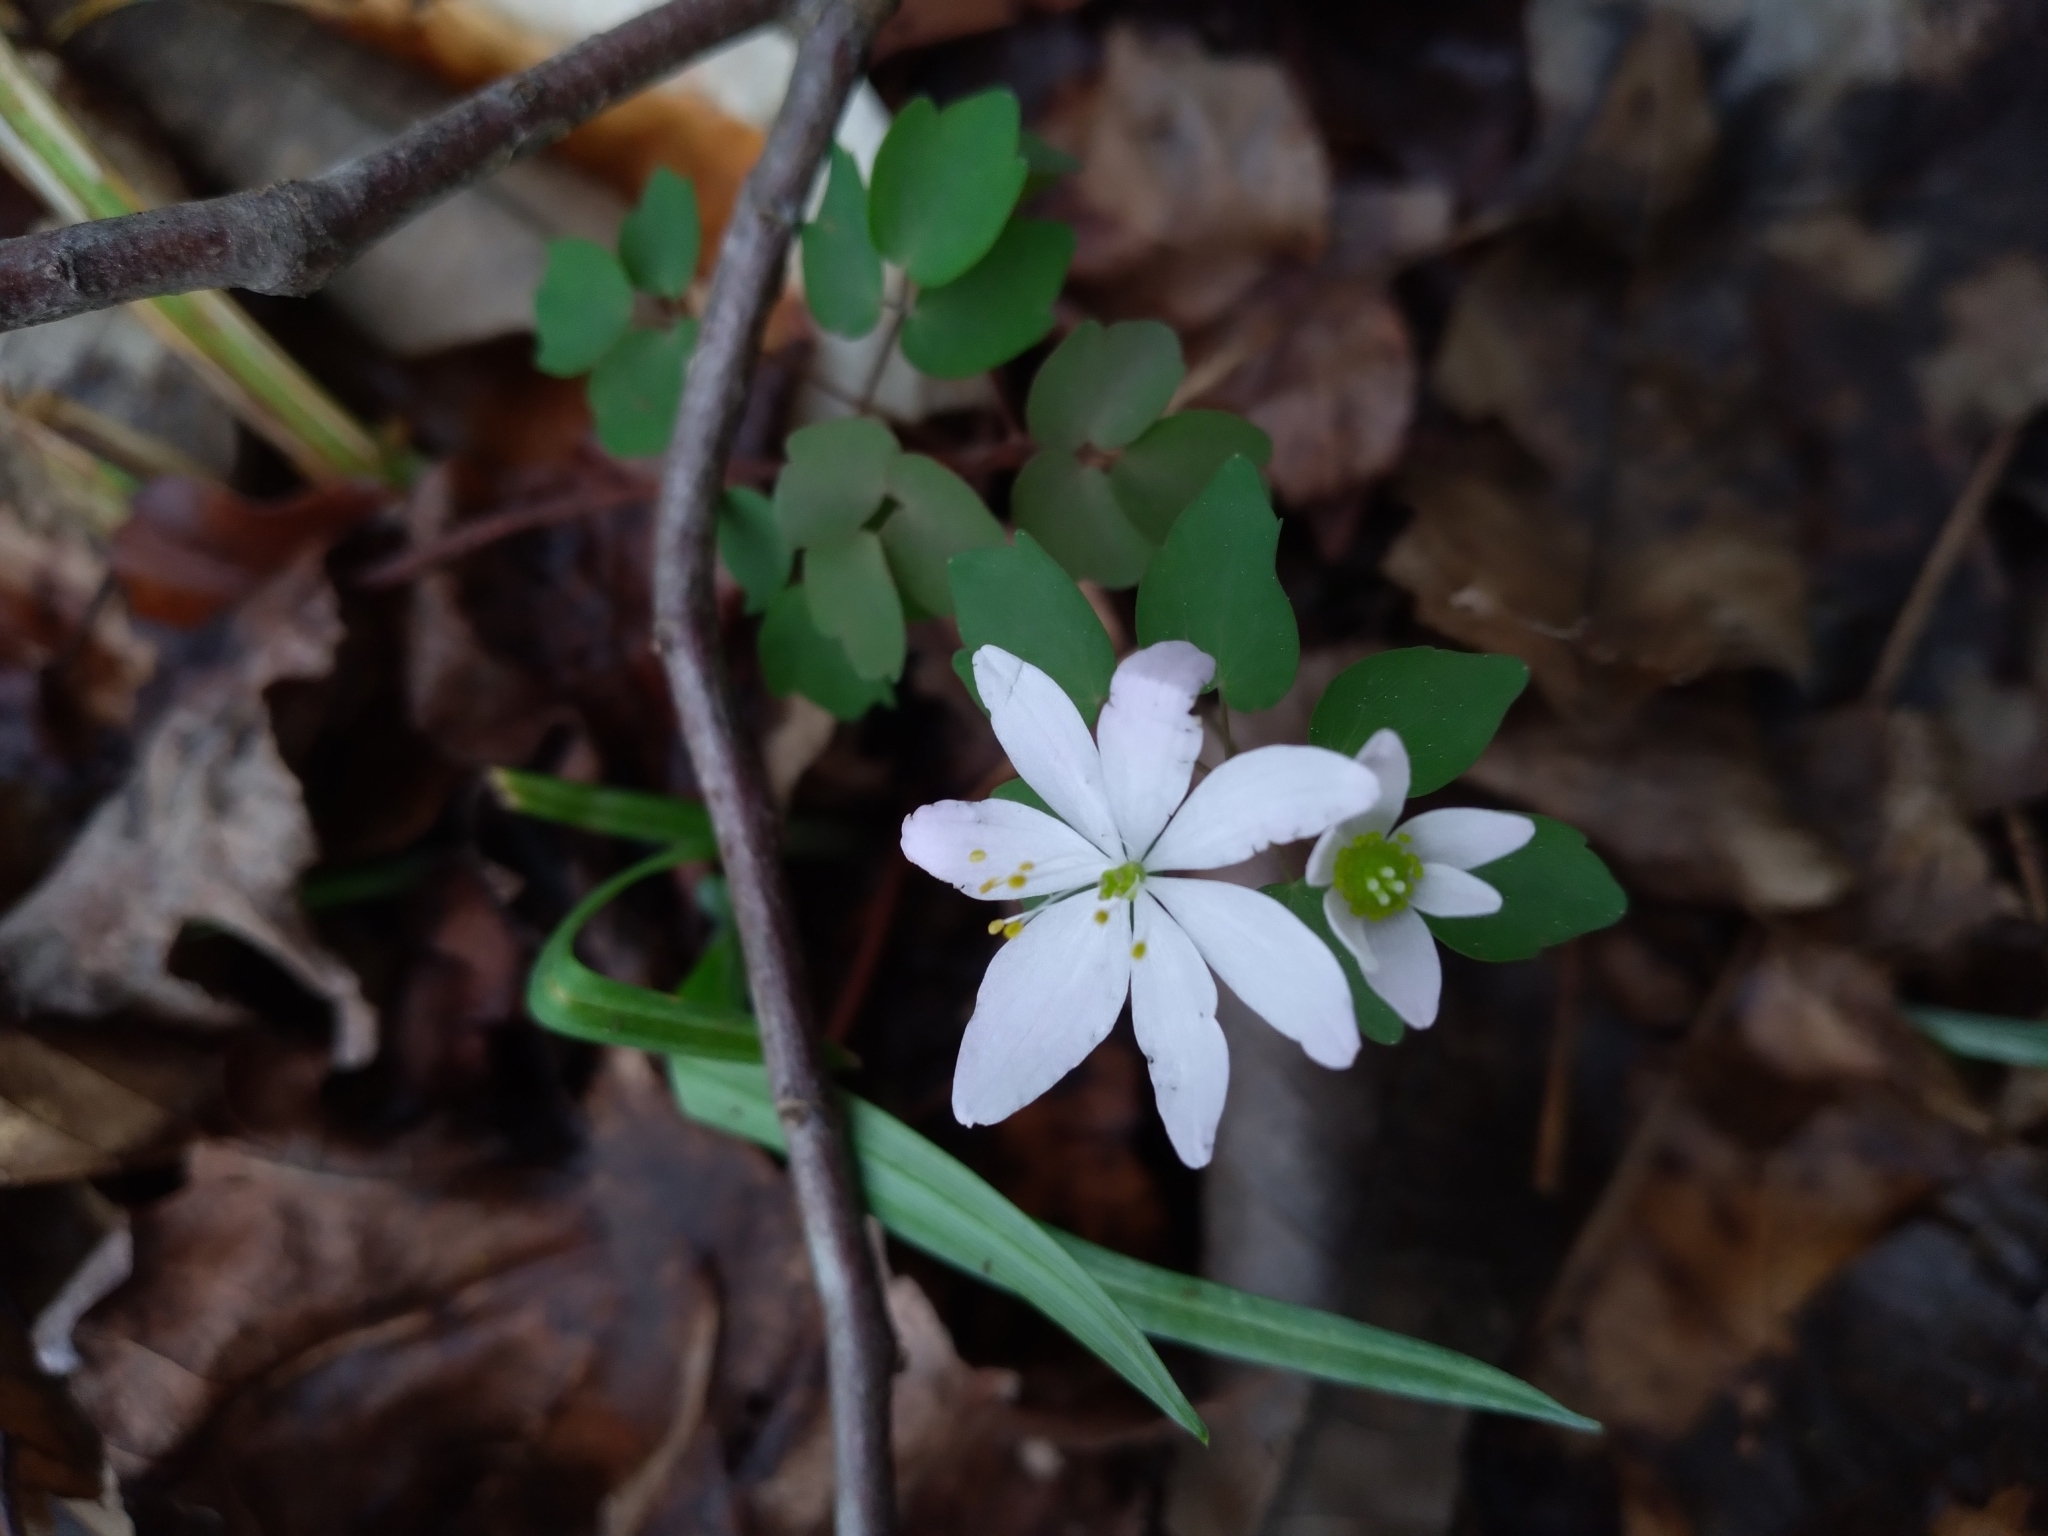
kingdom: Plantae
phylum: Tracheophyta
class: Magnoliopsida
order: Ranunculales
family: Ranunculaceae
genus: Thalictrum
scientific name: Thalictrum thalictroides
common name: Rue-anemone
